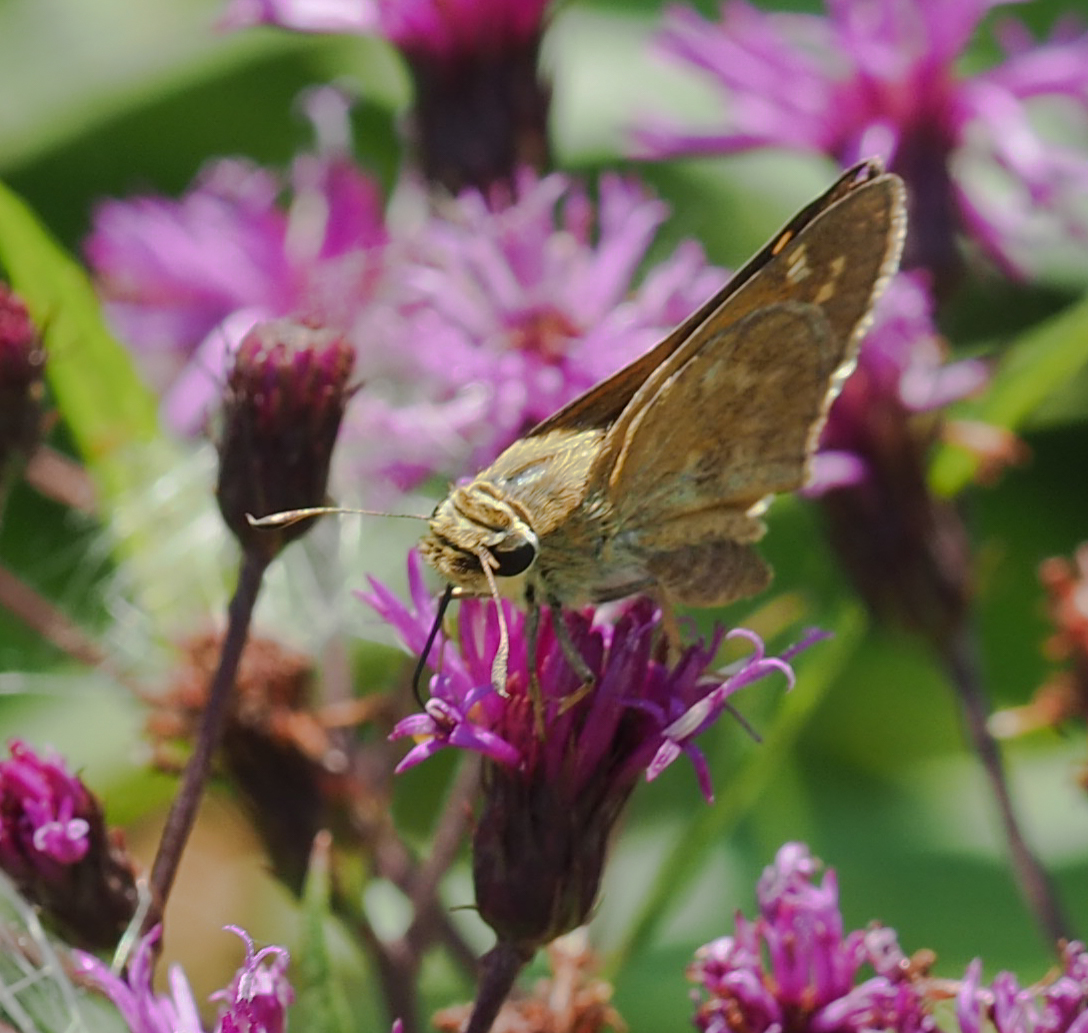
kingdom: Animalia
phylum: Arthropoda
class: Insecta
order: Lepidoptera
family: Hesperiidae
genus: Atalopedes
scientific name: Atalopedes
